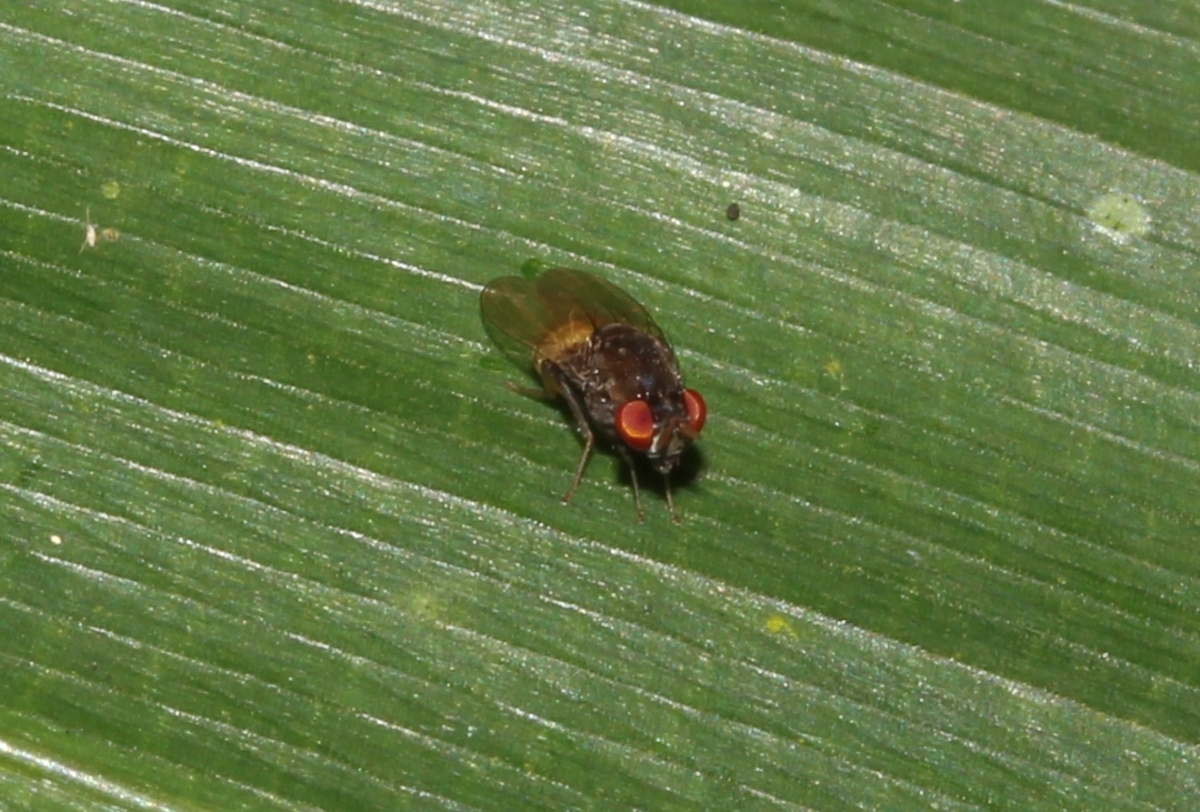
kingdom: Animalia
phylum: Arthropoda
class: Insecta
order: Diptera
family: Lauxaniidae
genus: Sericominettia
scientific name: Sericominettia
